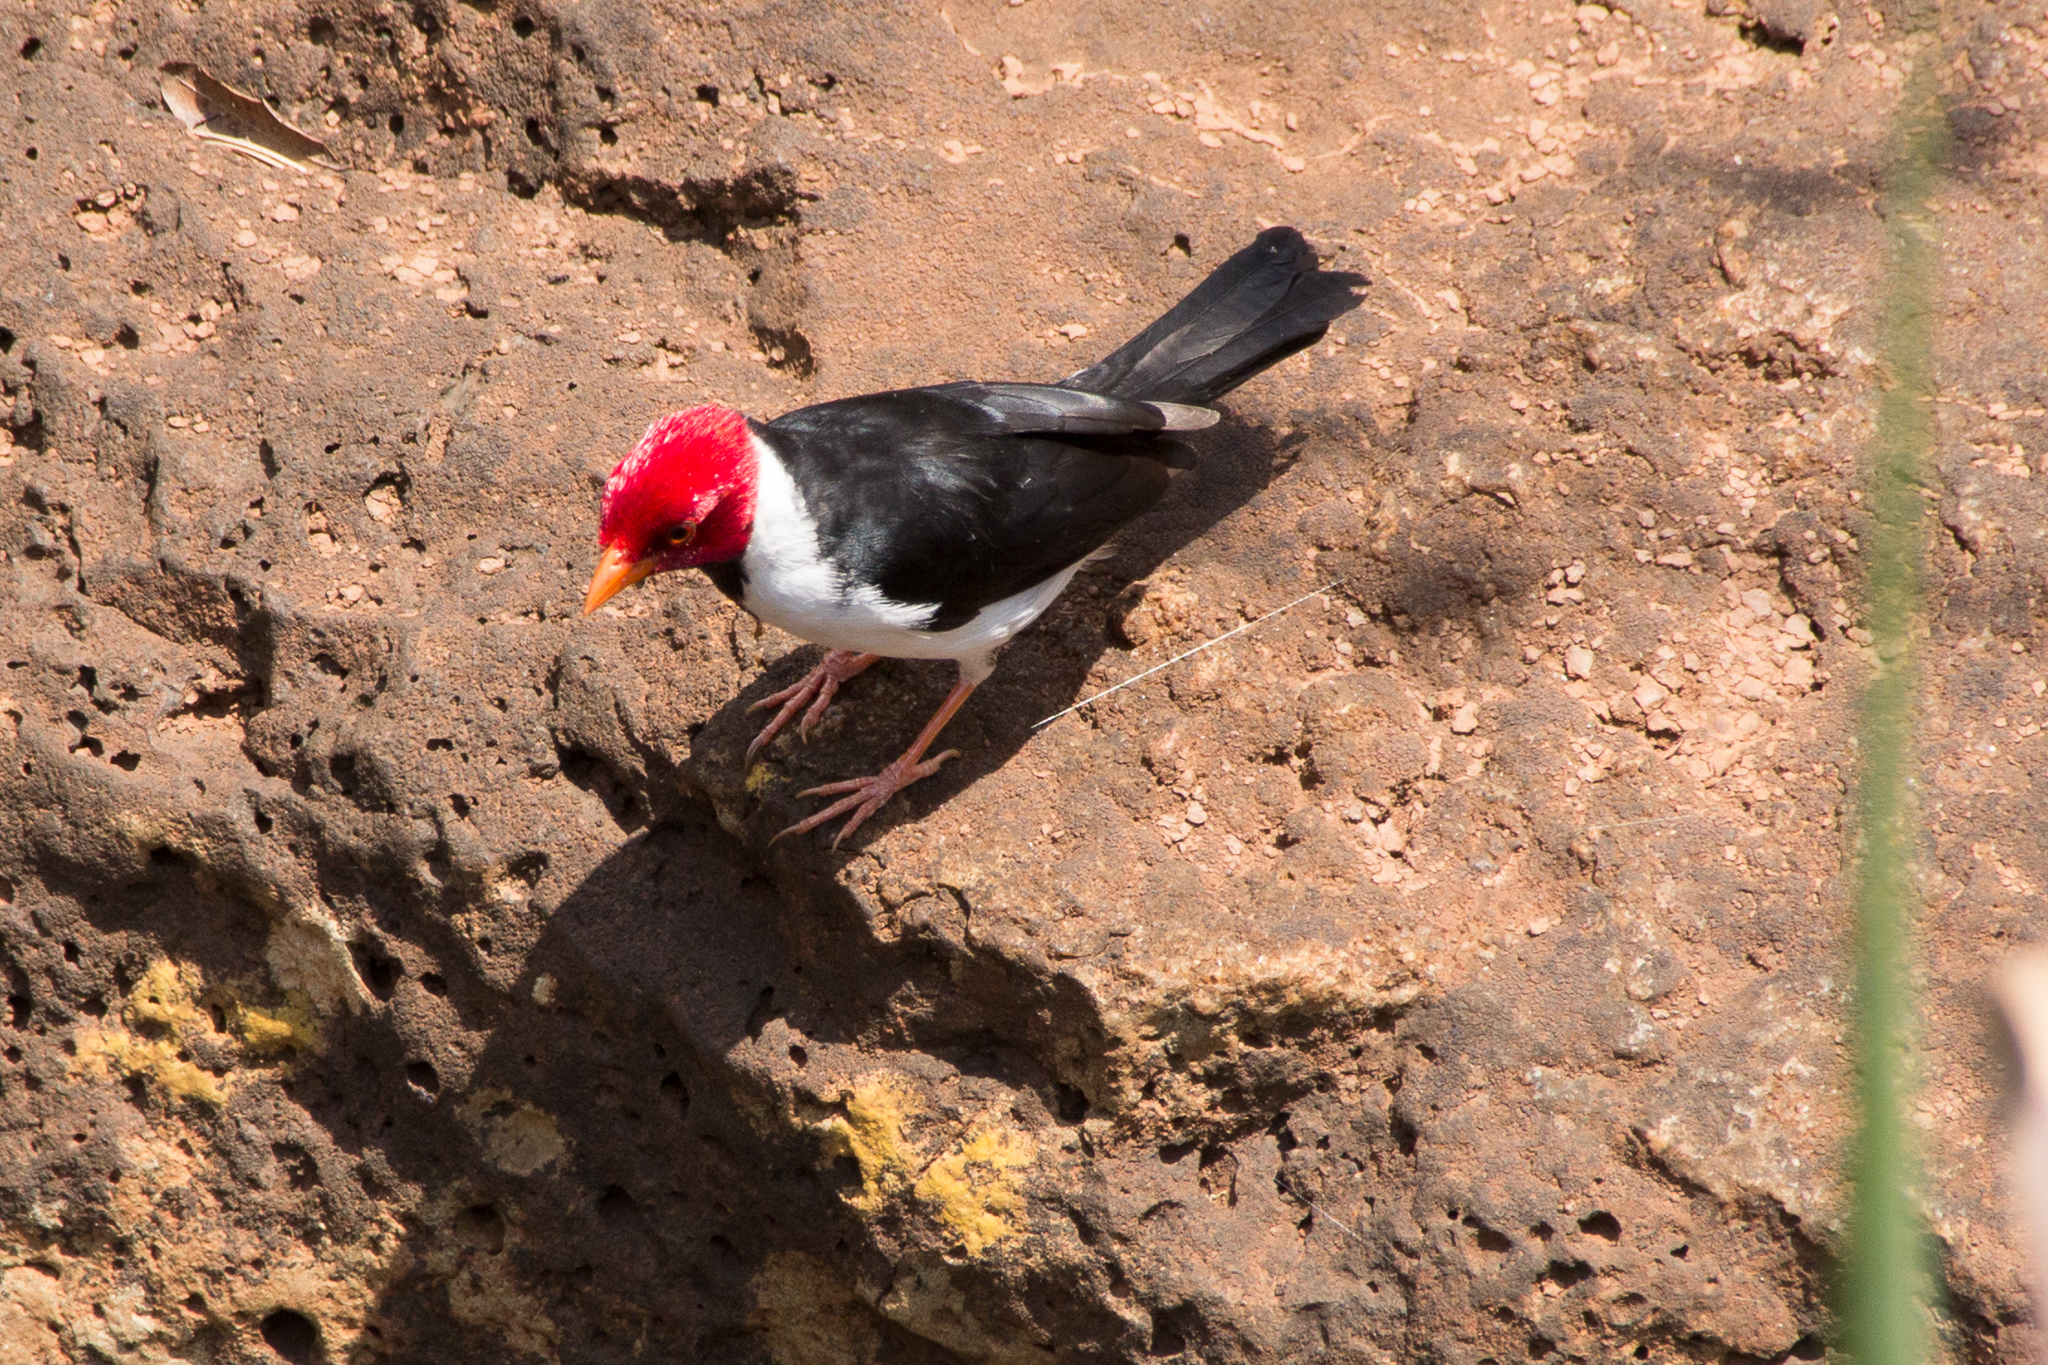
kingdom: Animalia
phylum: Chordata
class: Aves
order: Passeriformes
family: Thraupidae
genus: Paroaria
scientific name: Paroaria capitata
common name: Yellow-billed cardinal
